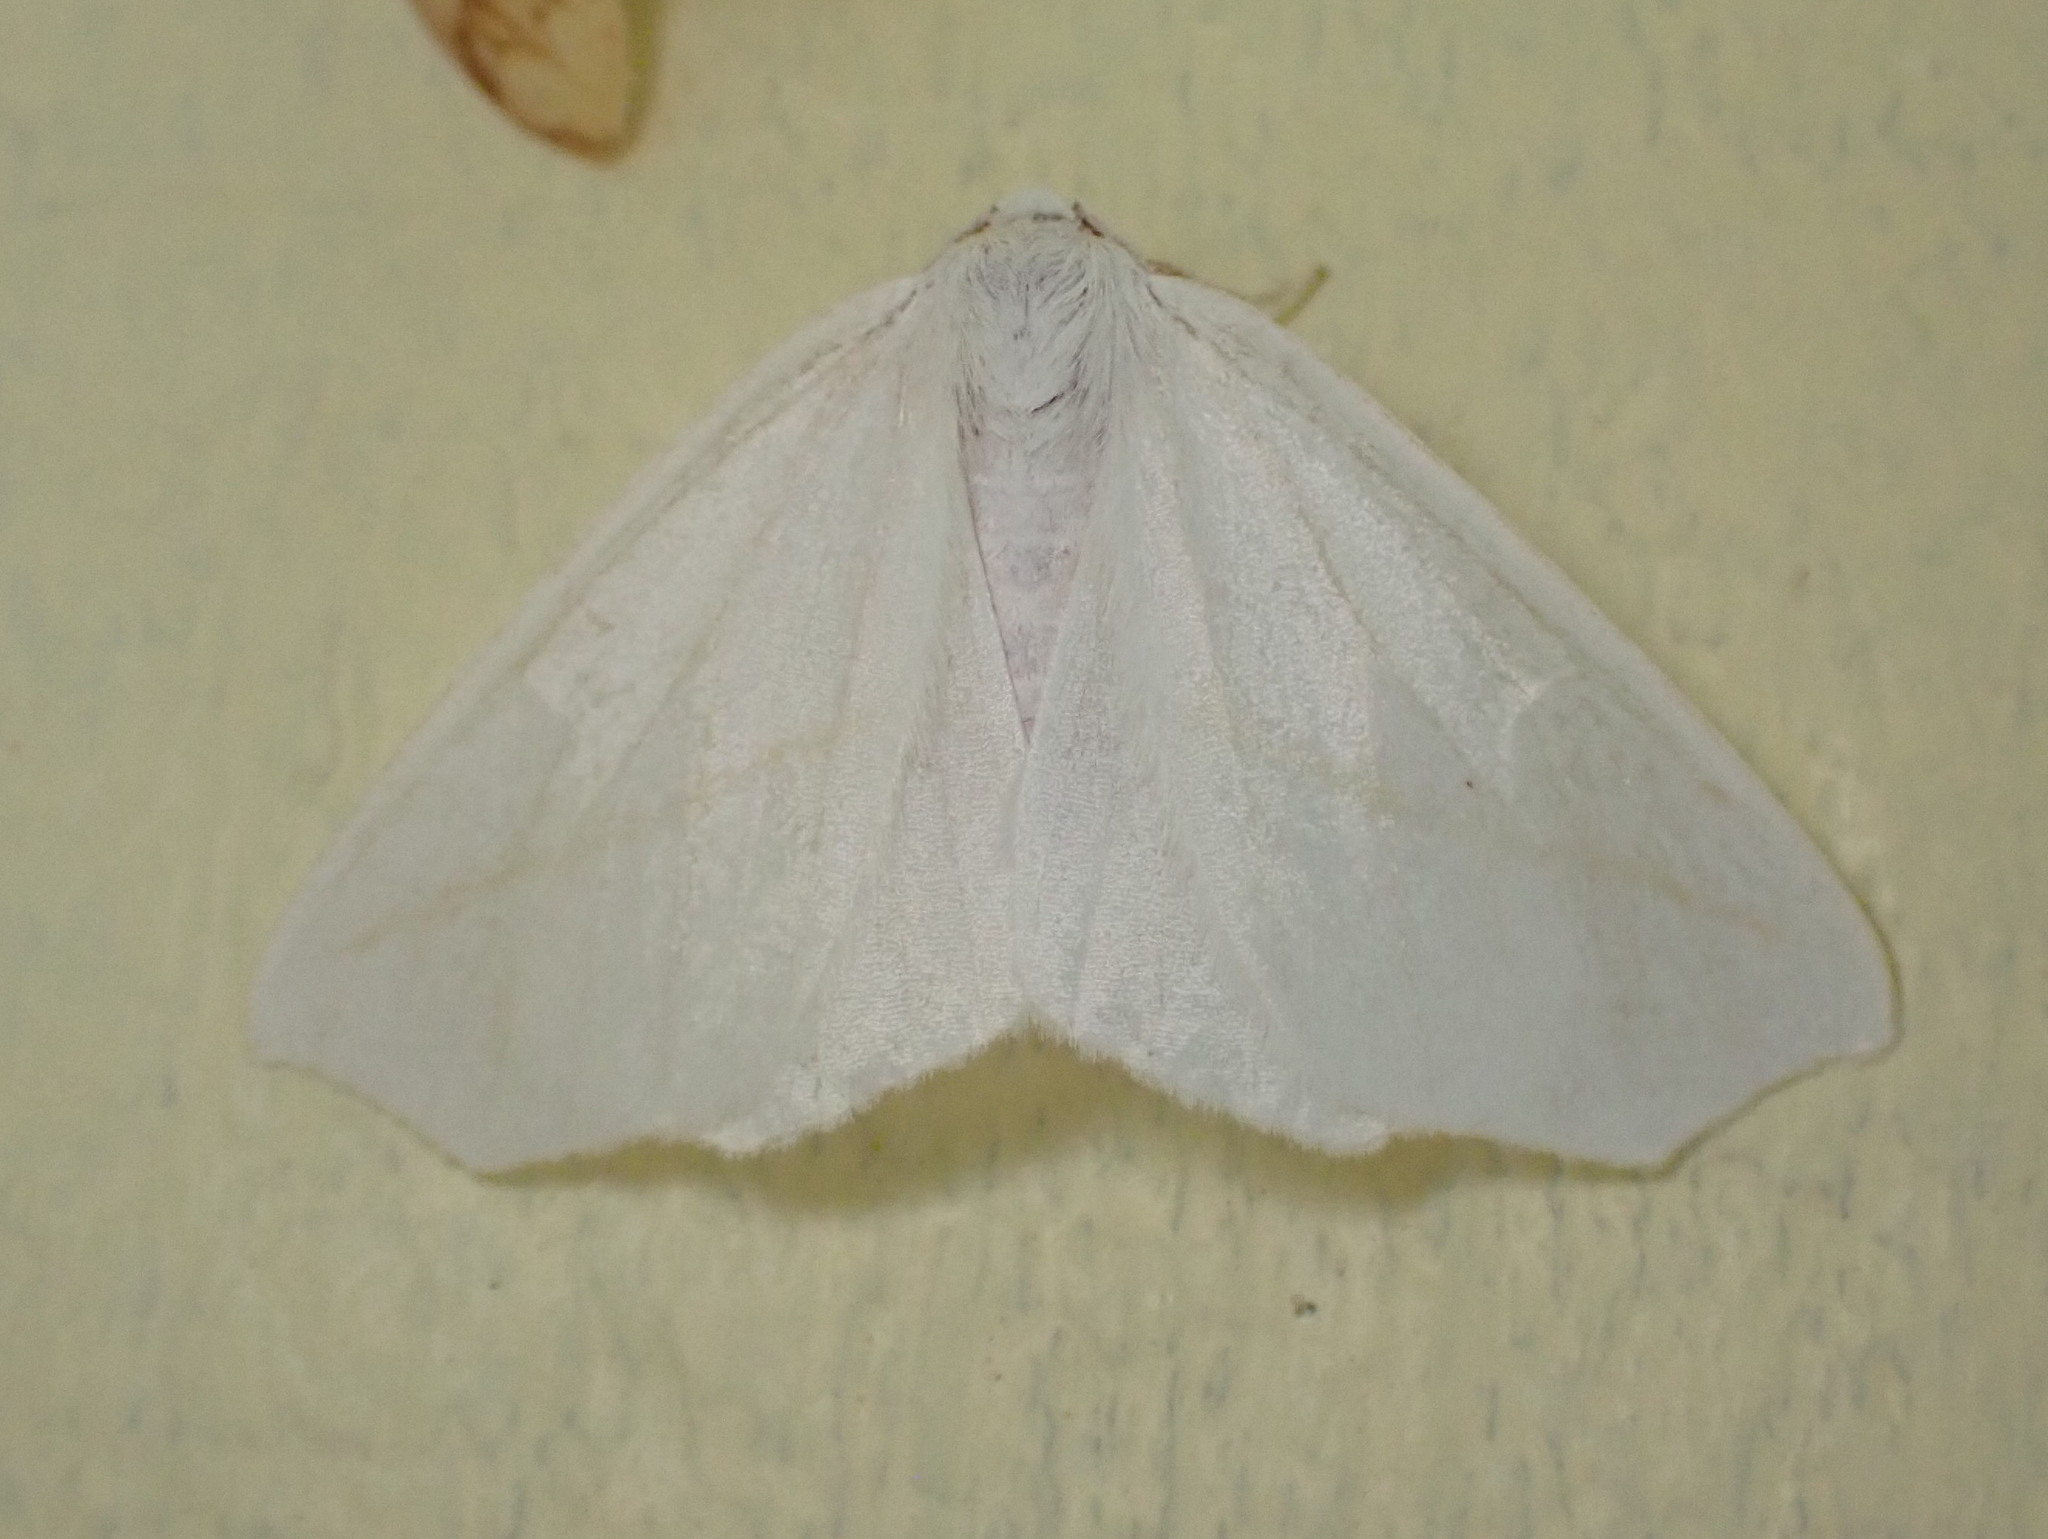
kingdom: Animalia
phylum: Arthropoda
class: Insecta
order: Lepidoptera
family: Geometridae
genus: Tetracis
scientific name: Tetracis cachexiata
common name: White slant-line
